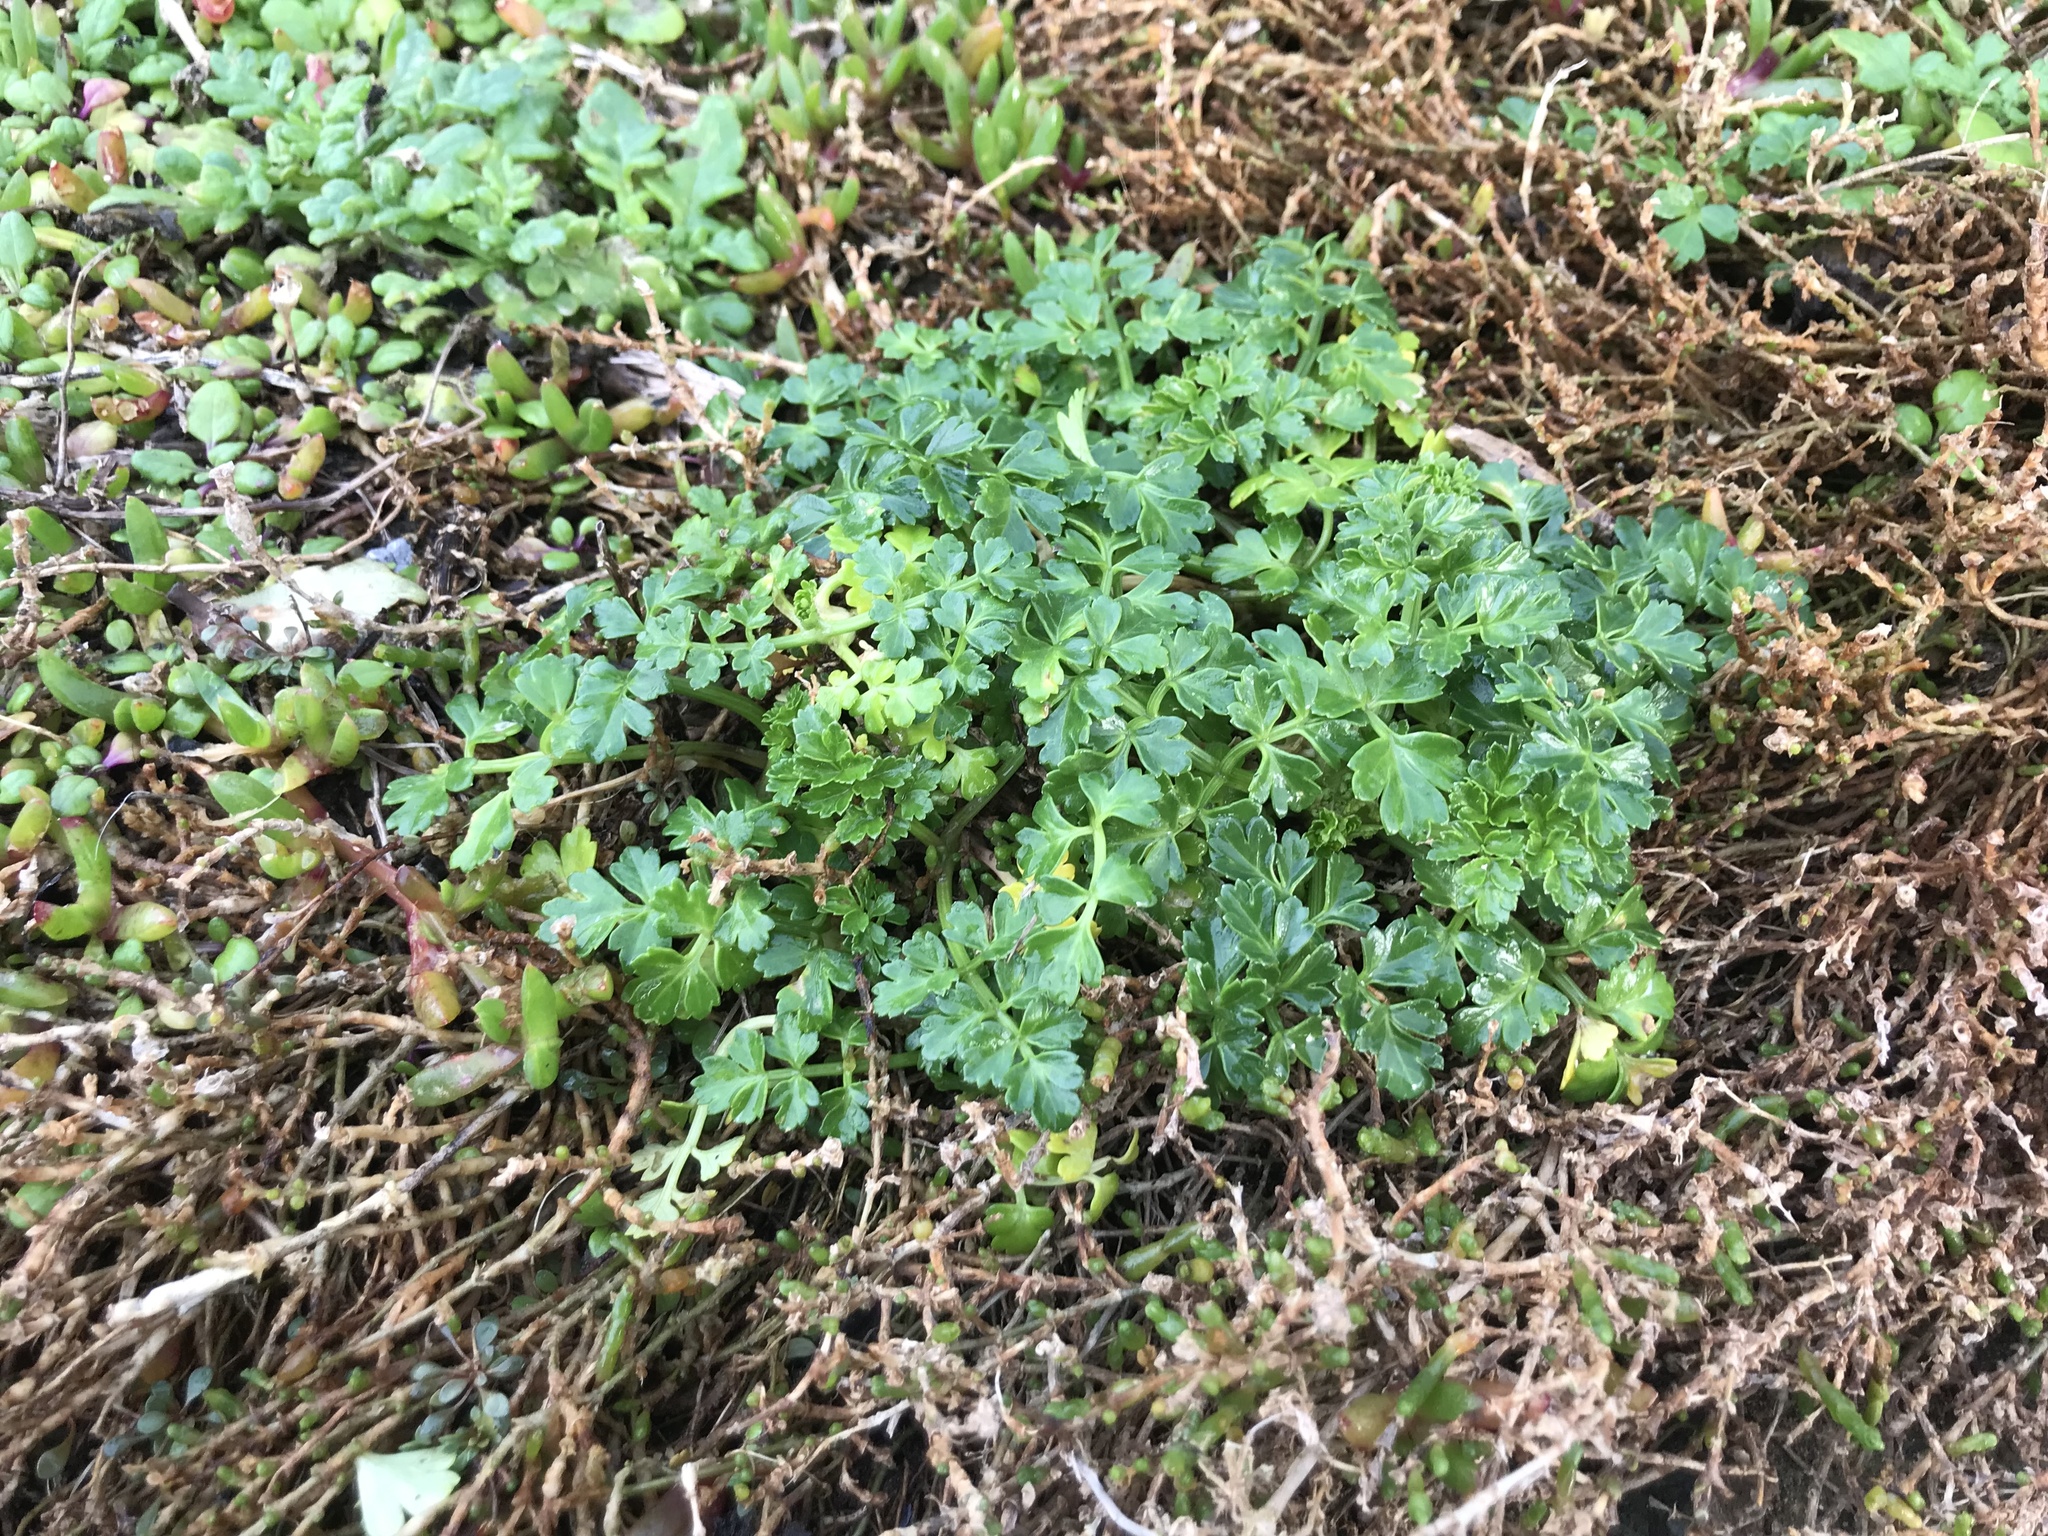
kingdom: Plantae
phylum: Tracheophyta
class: Magnoliopsida
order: Apiales
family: Apiaceae
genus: Apium
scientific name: Apium prostratum
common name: Prostrate marshwort
